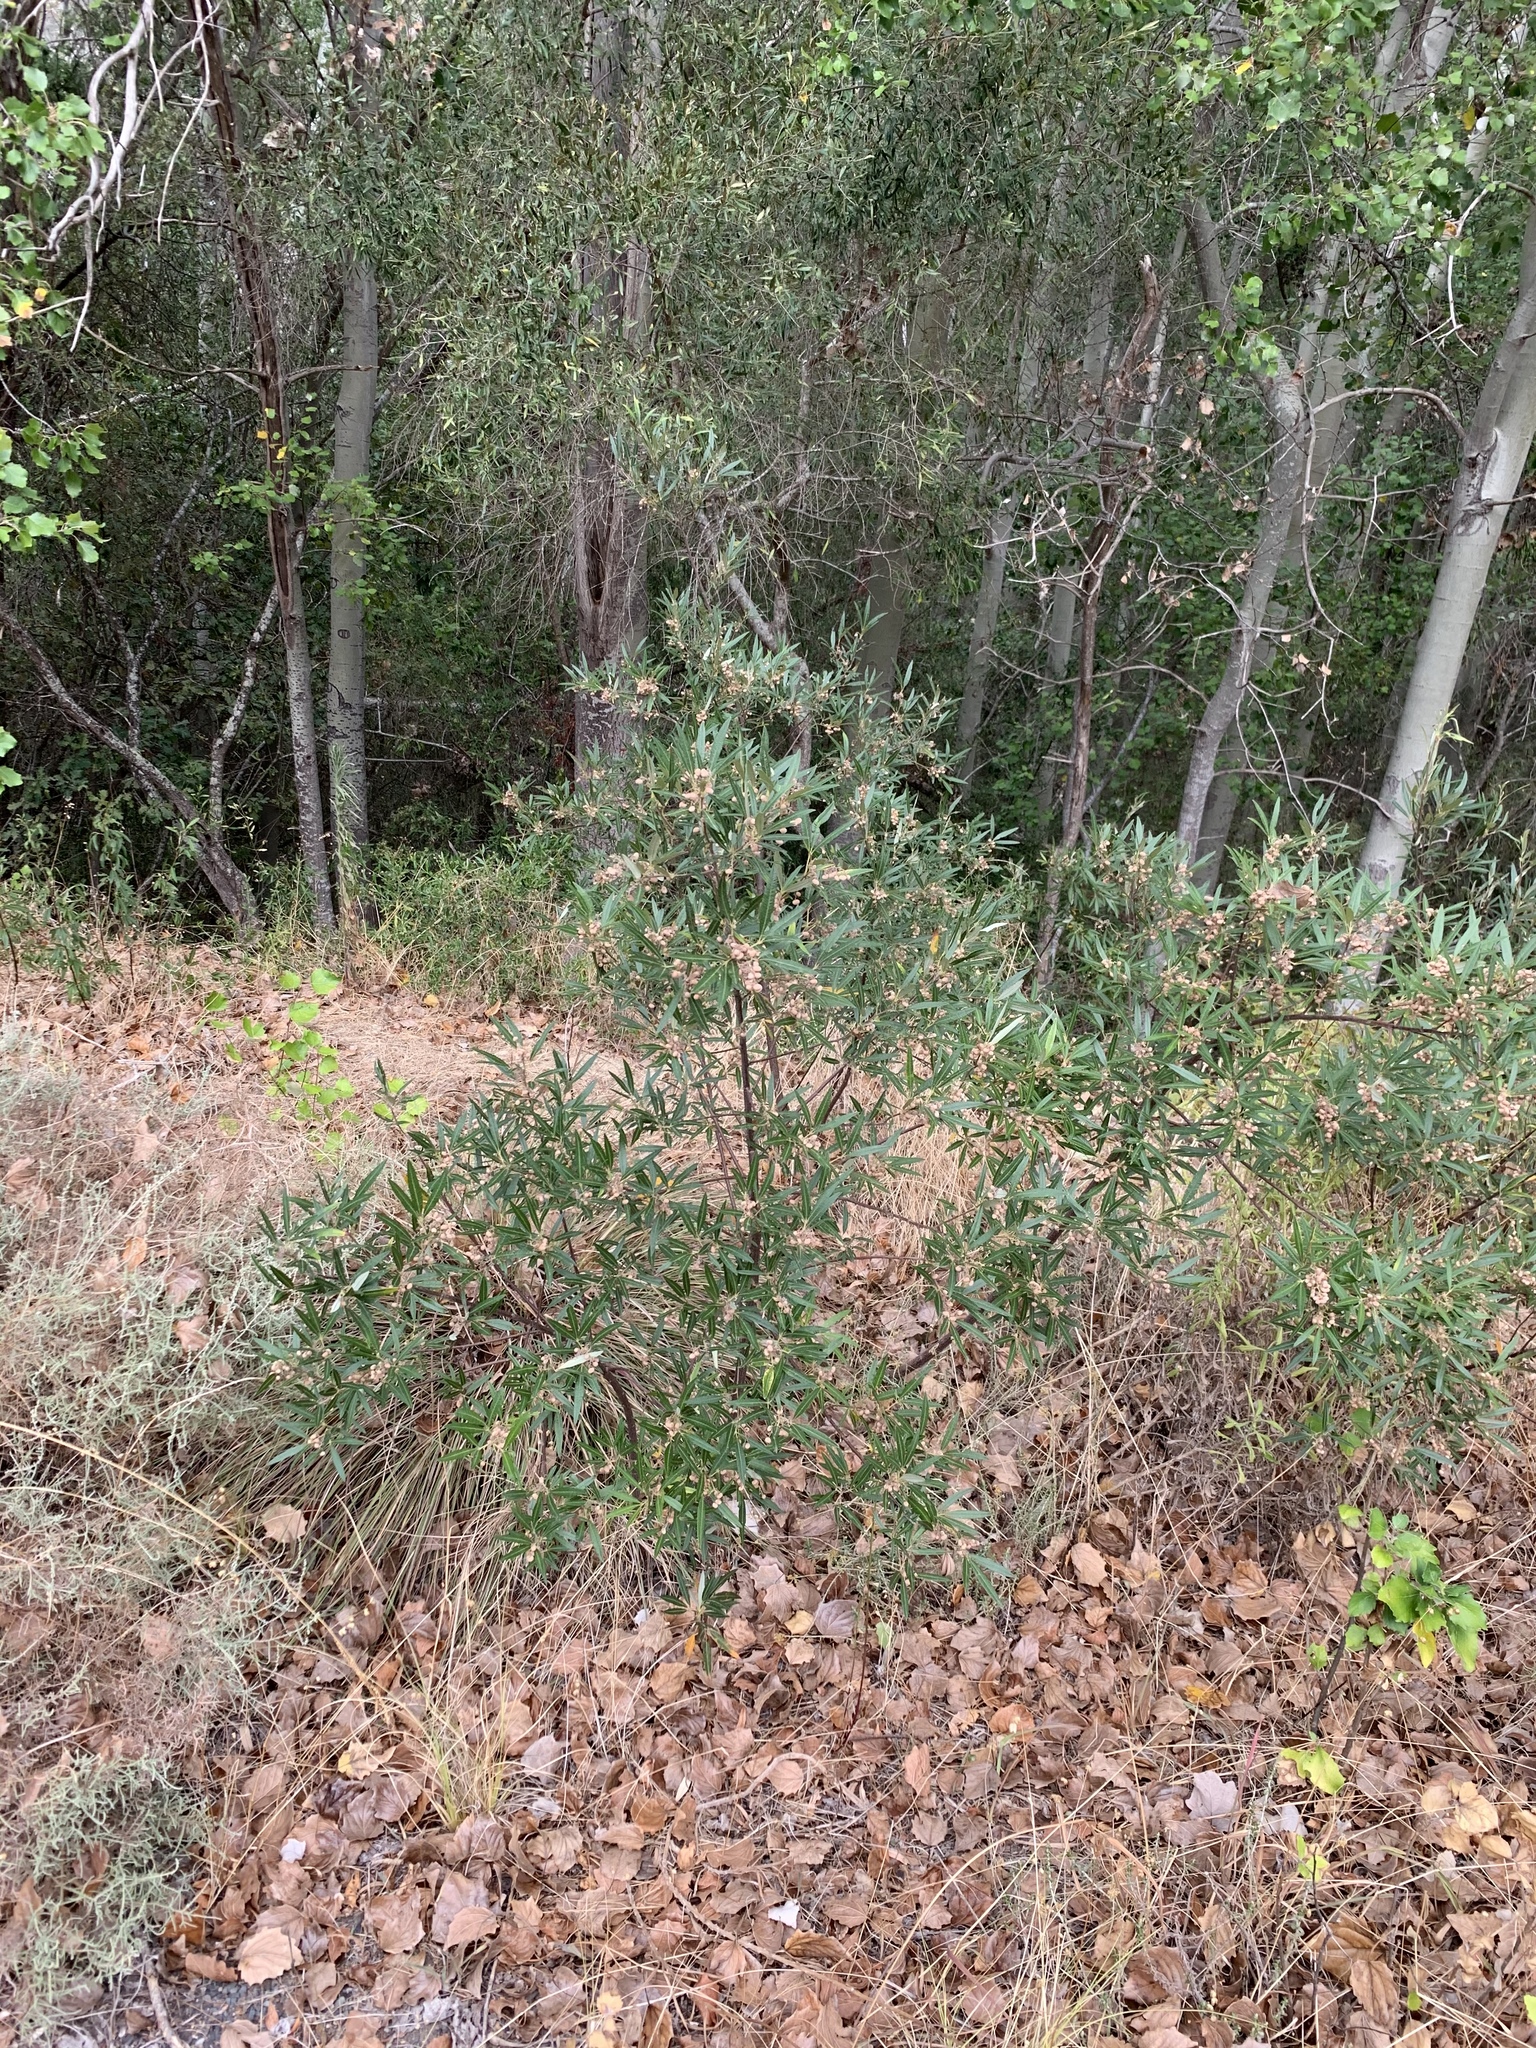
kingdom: Plantae
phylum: Tracheophyta
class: Magnoliopsida
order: Sapindales
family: Anacardiaceae
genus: Searsia
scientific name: Searsia angustifolia
